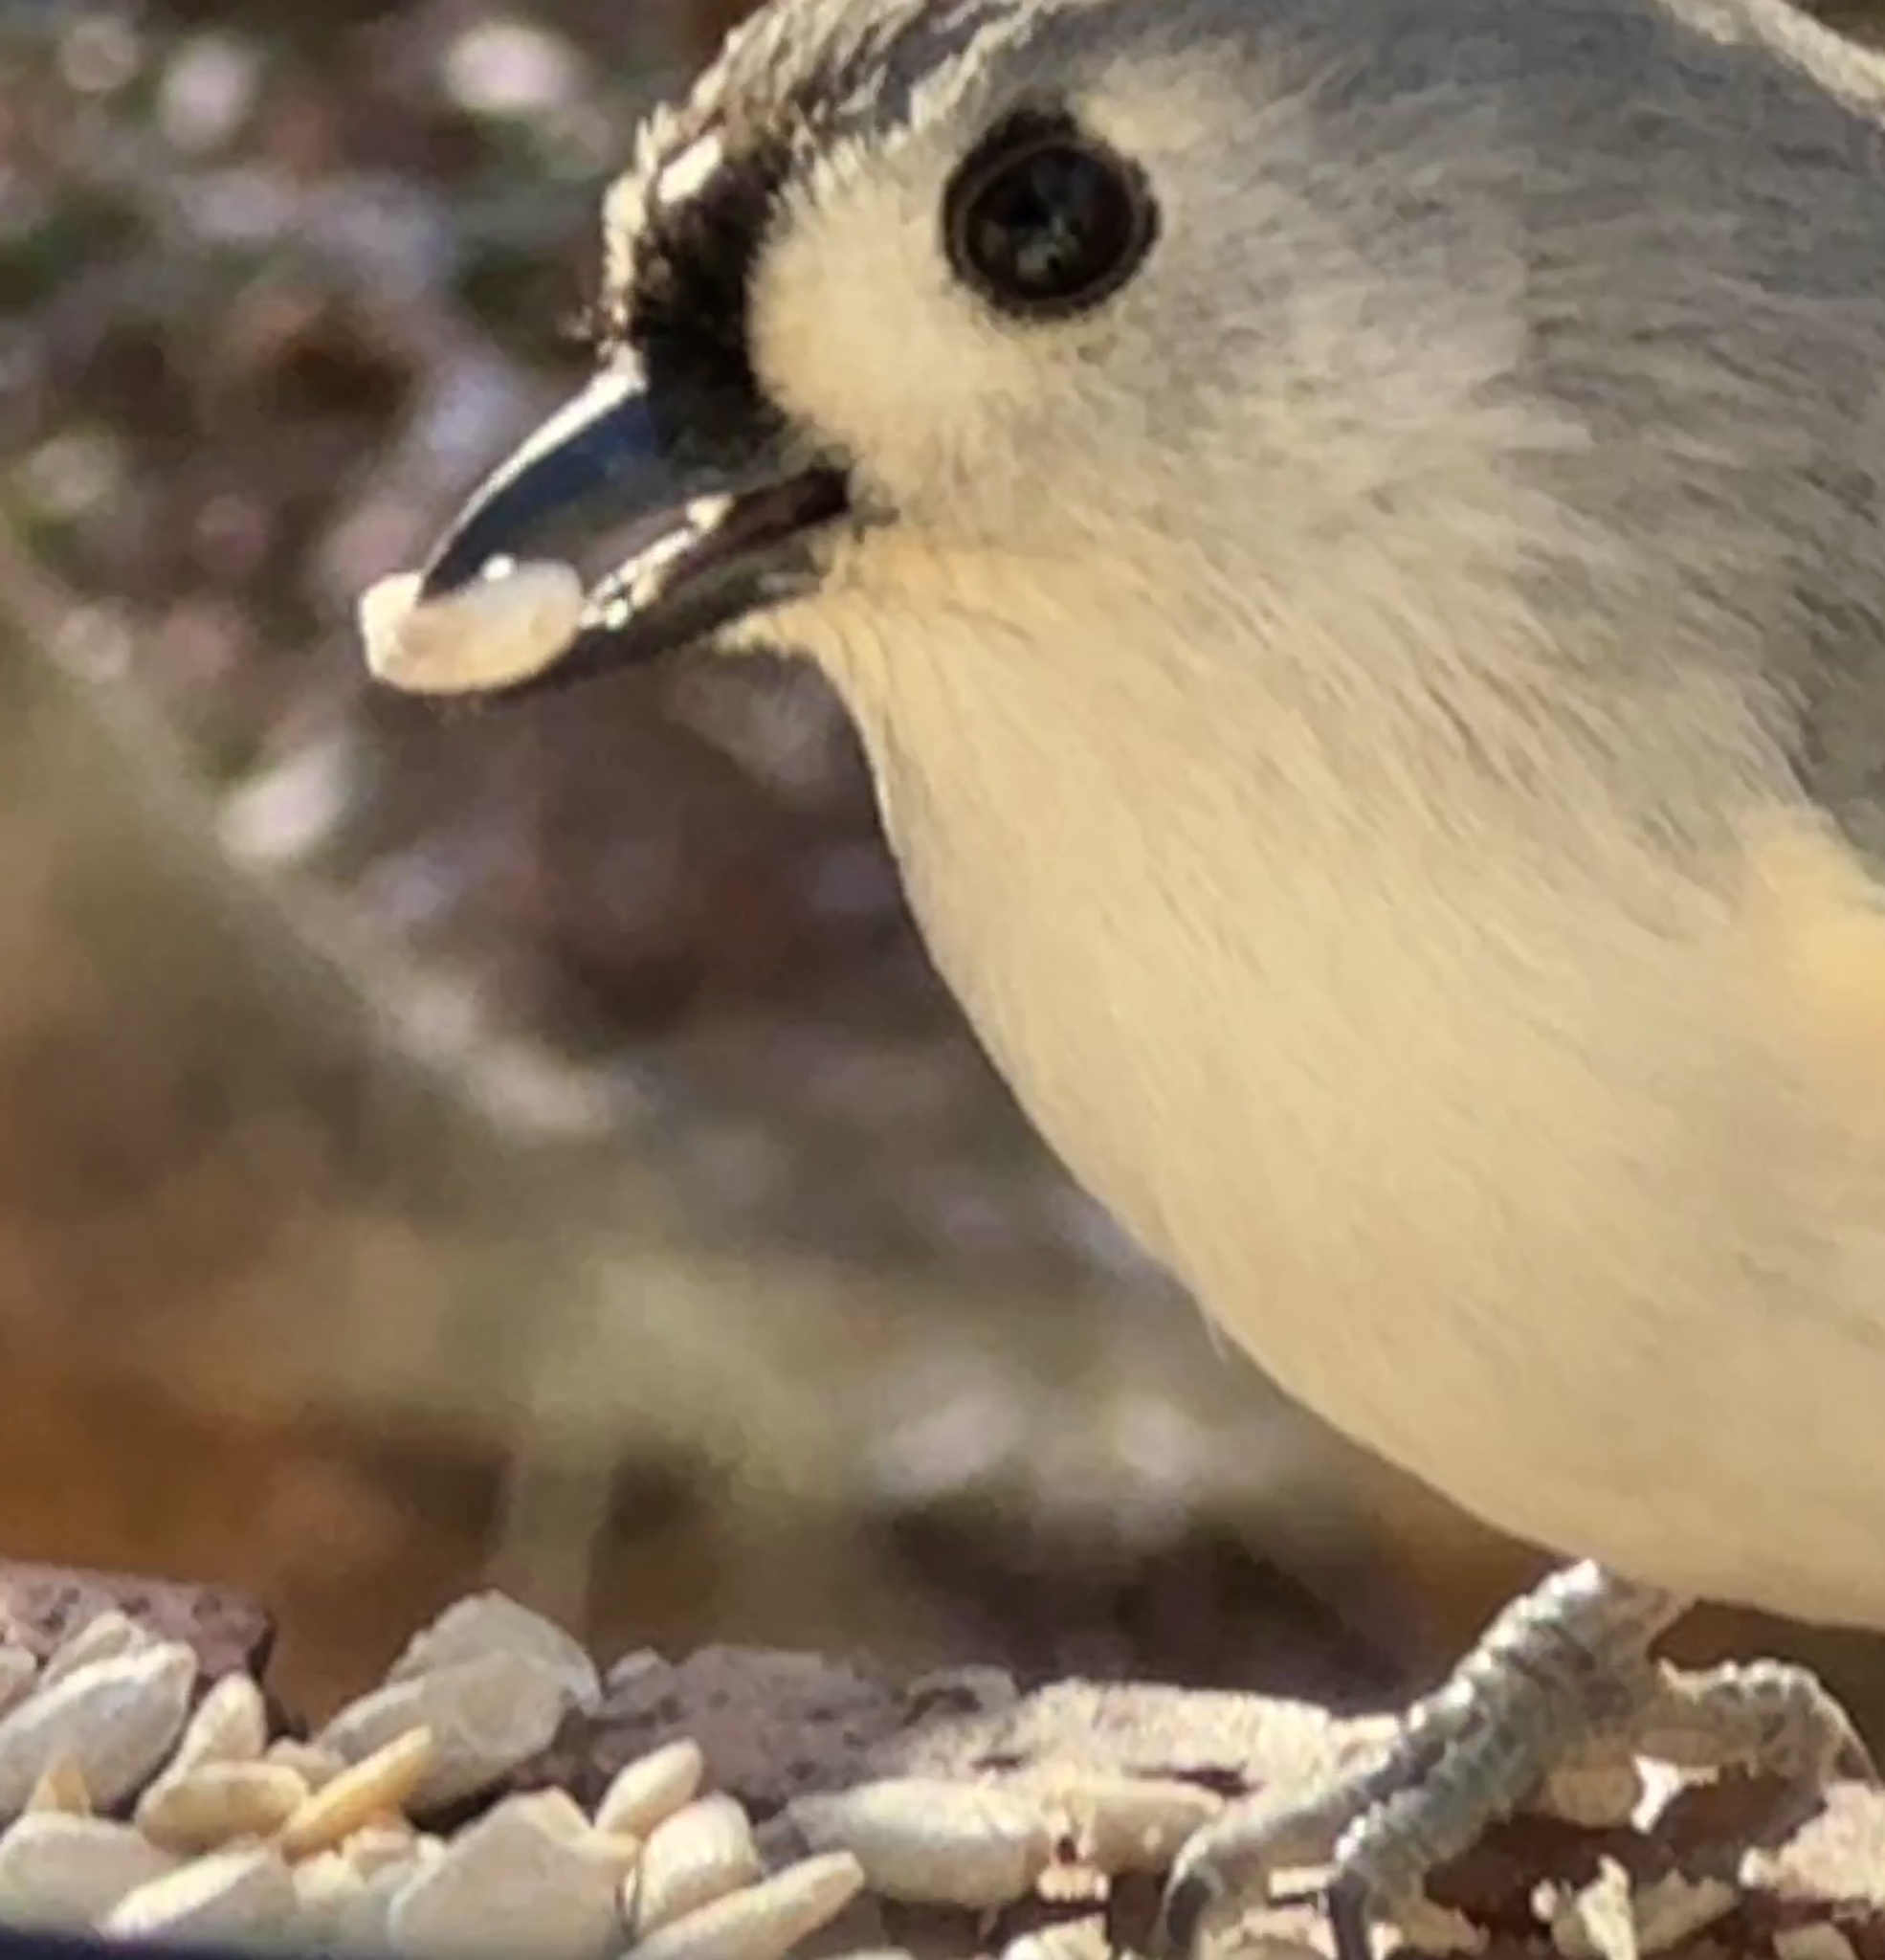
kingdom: Animalia
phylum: Chordata
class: Aves
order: Passeriformes
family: Paridae
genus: Baeolophus
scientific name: Baeolophus bicolor
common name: Tufted titmouse
